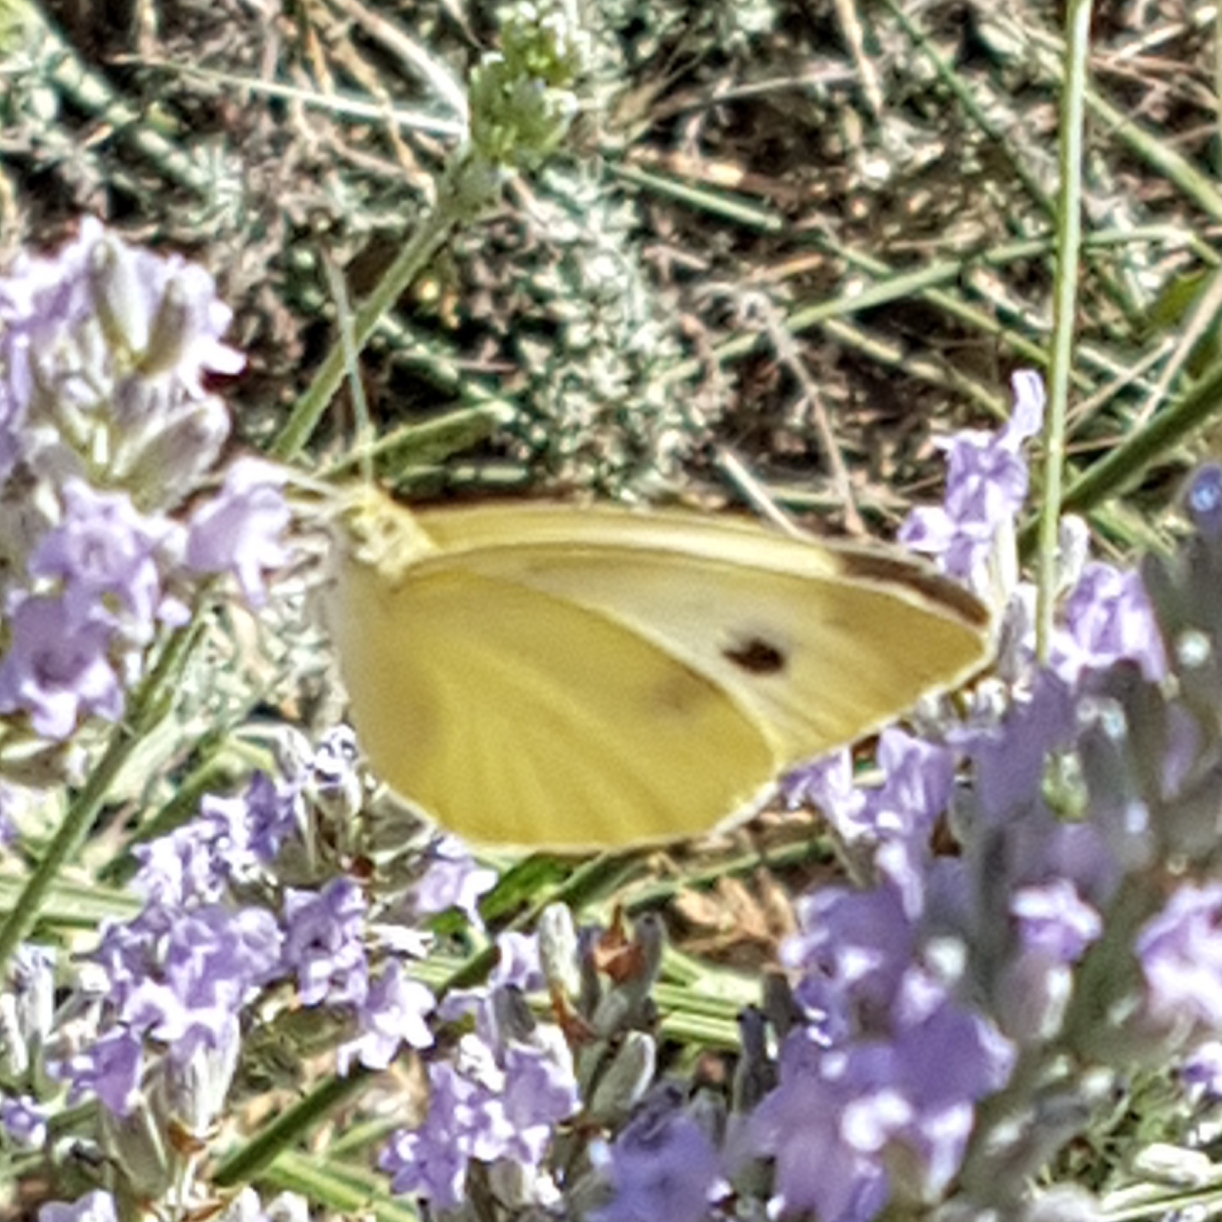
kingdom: Animalia
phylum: Arthropoda
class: Insecta
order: Lepidoptera
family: Pieridae
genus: Pieris
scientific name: Pieris rapae
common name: Small white
